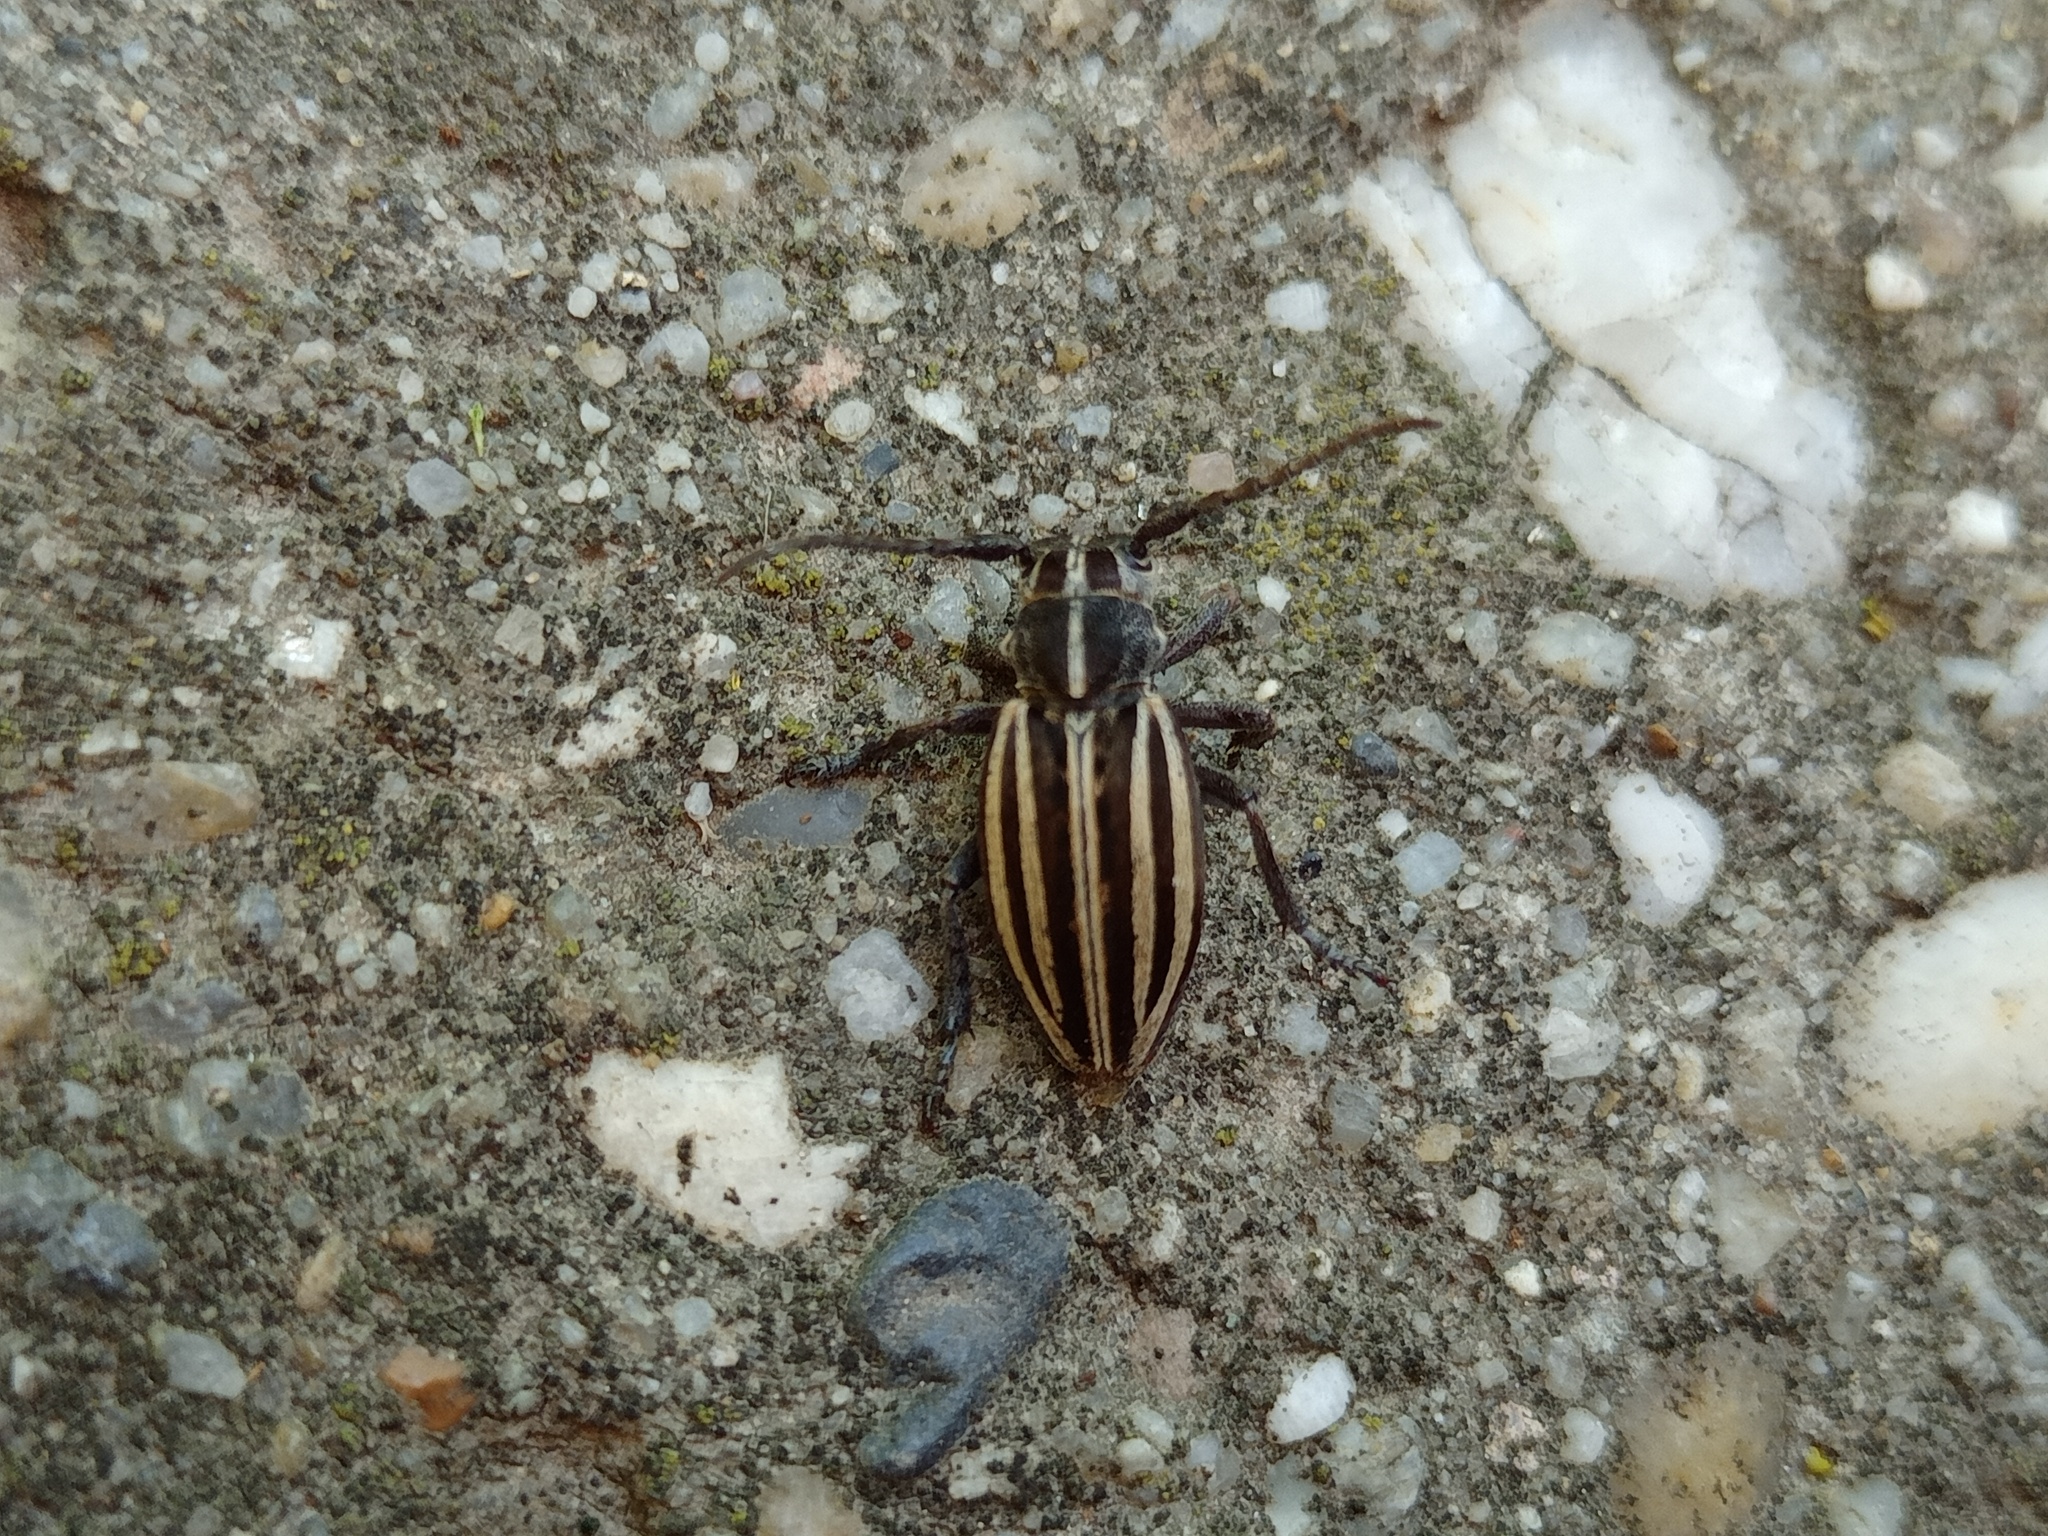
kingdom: Animalia
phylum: Arthropoda
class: Insecta
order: Coleoptera
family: Cerambycidae
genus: Dorcadion
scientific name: Dorcadion scopolii
